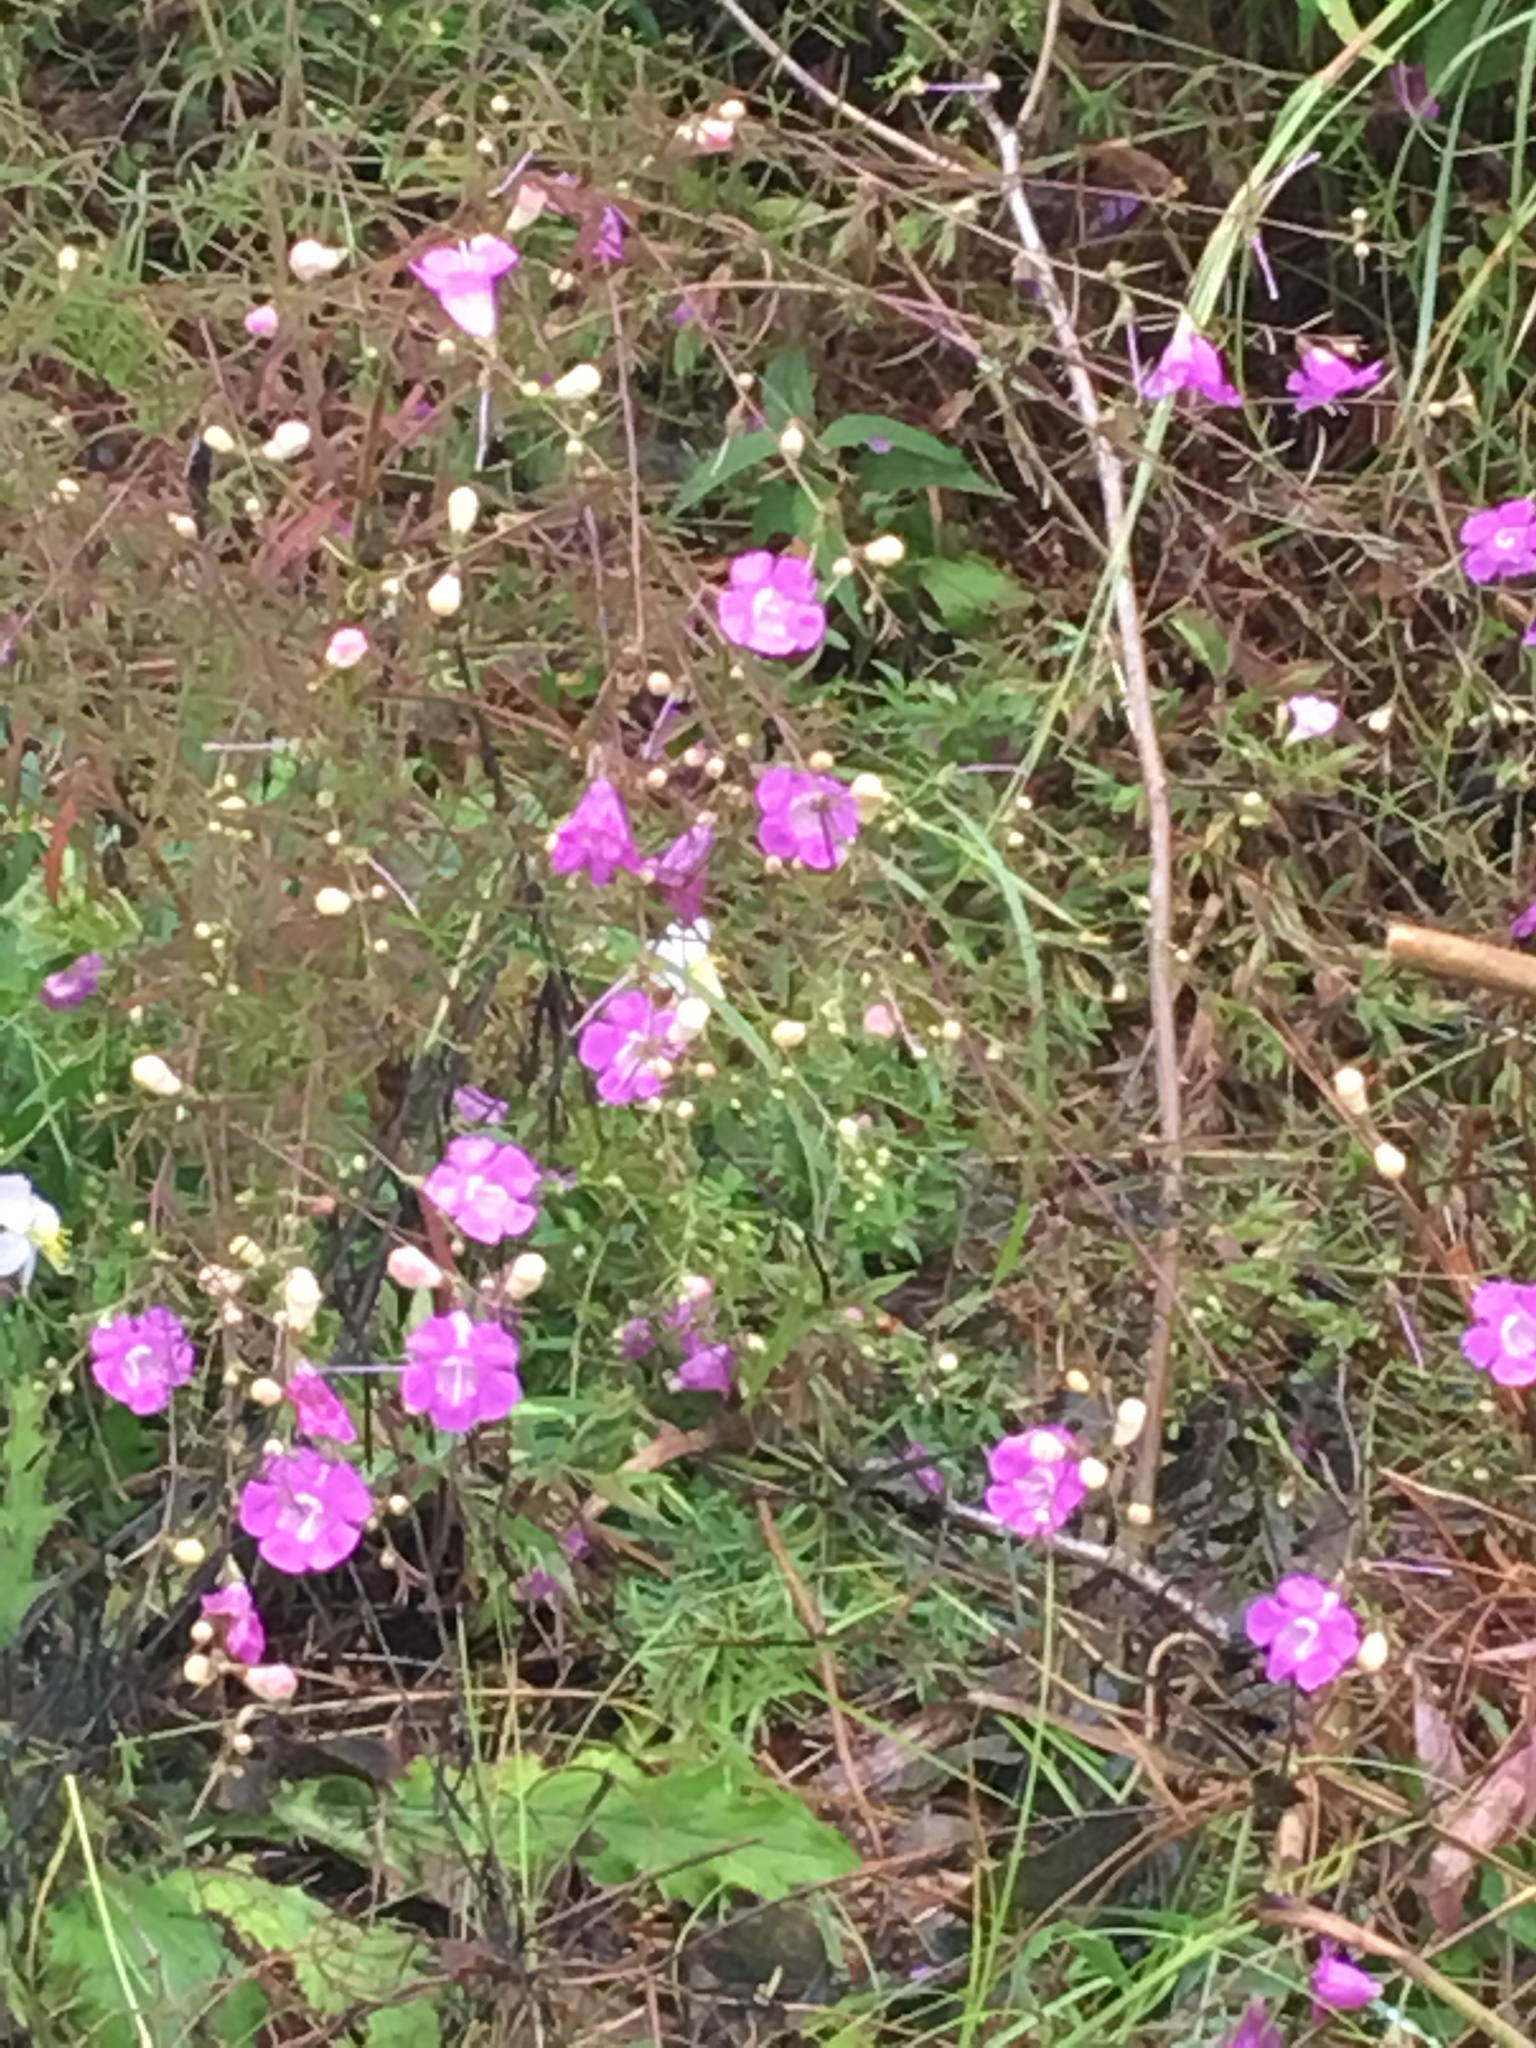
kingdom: Plantae
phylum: Tracheophyta
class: Magnoliopsida
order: Lamiales
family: Orobanchaceae
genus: Agalinis
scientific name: Agalinis purpurea
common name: Purple false foxglove
